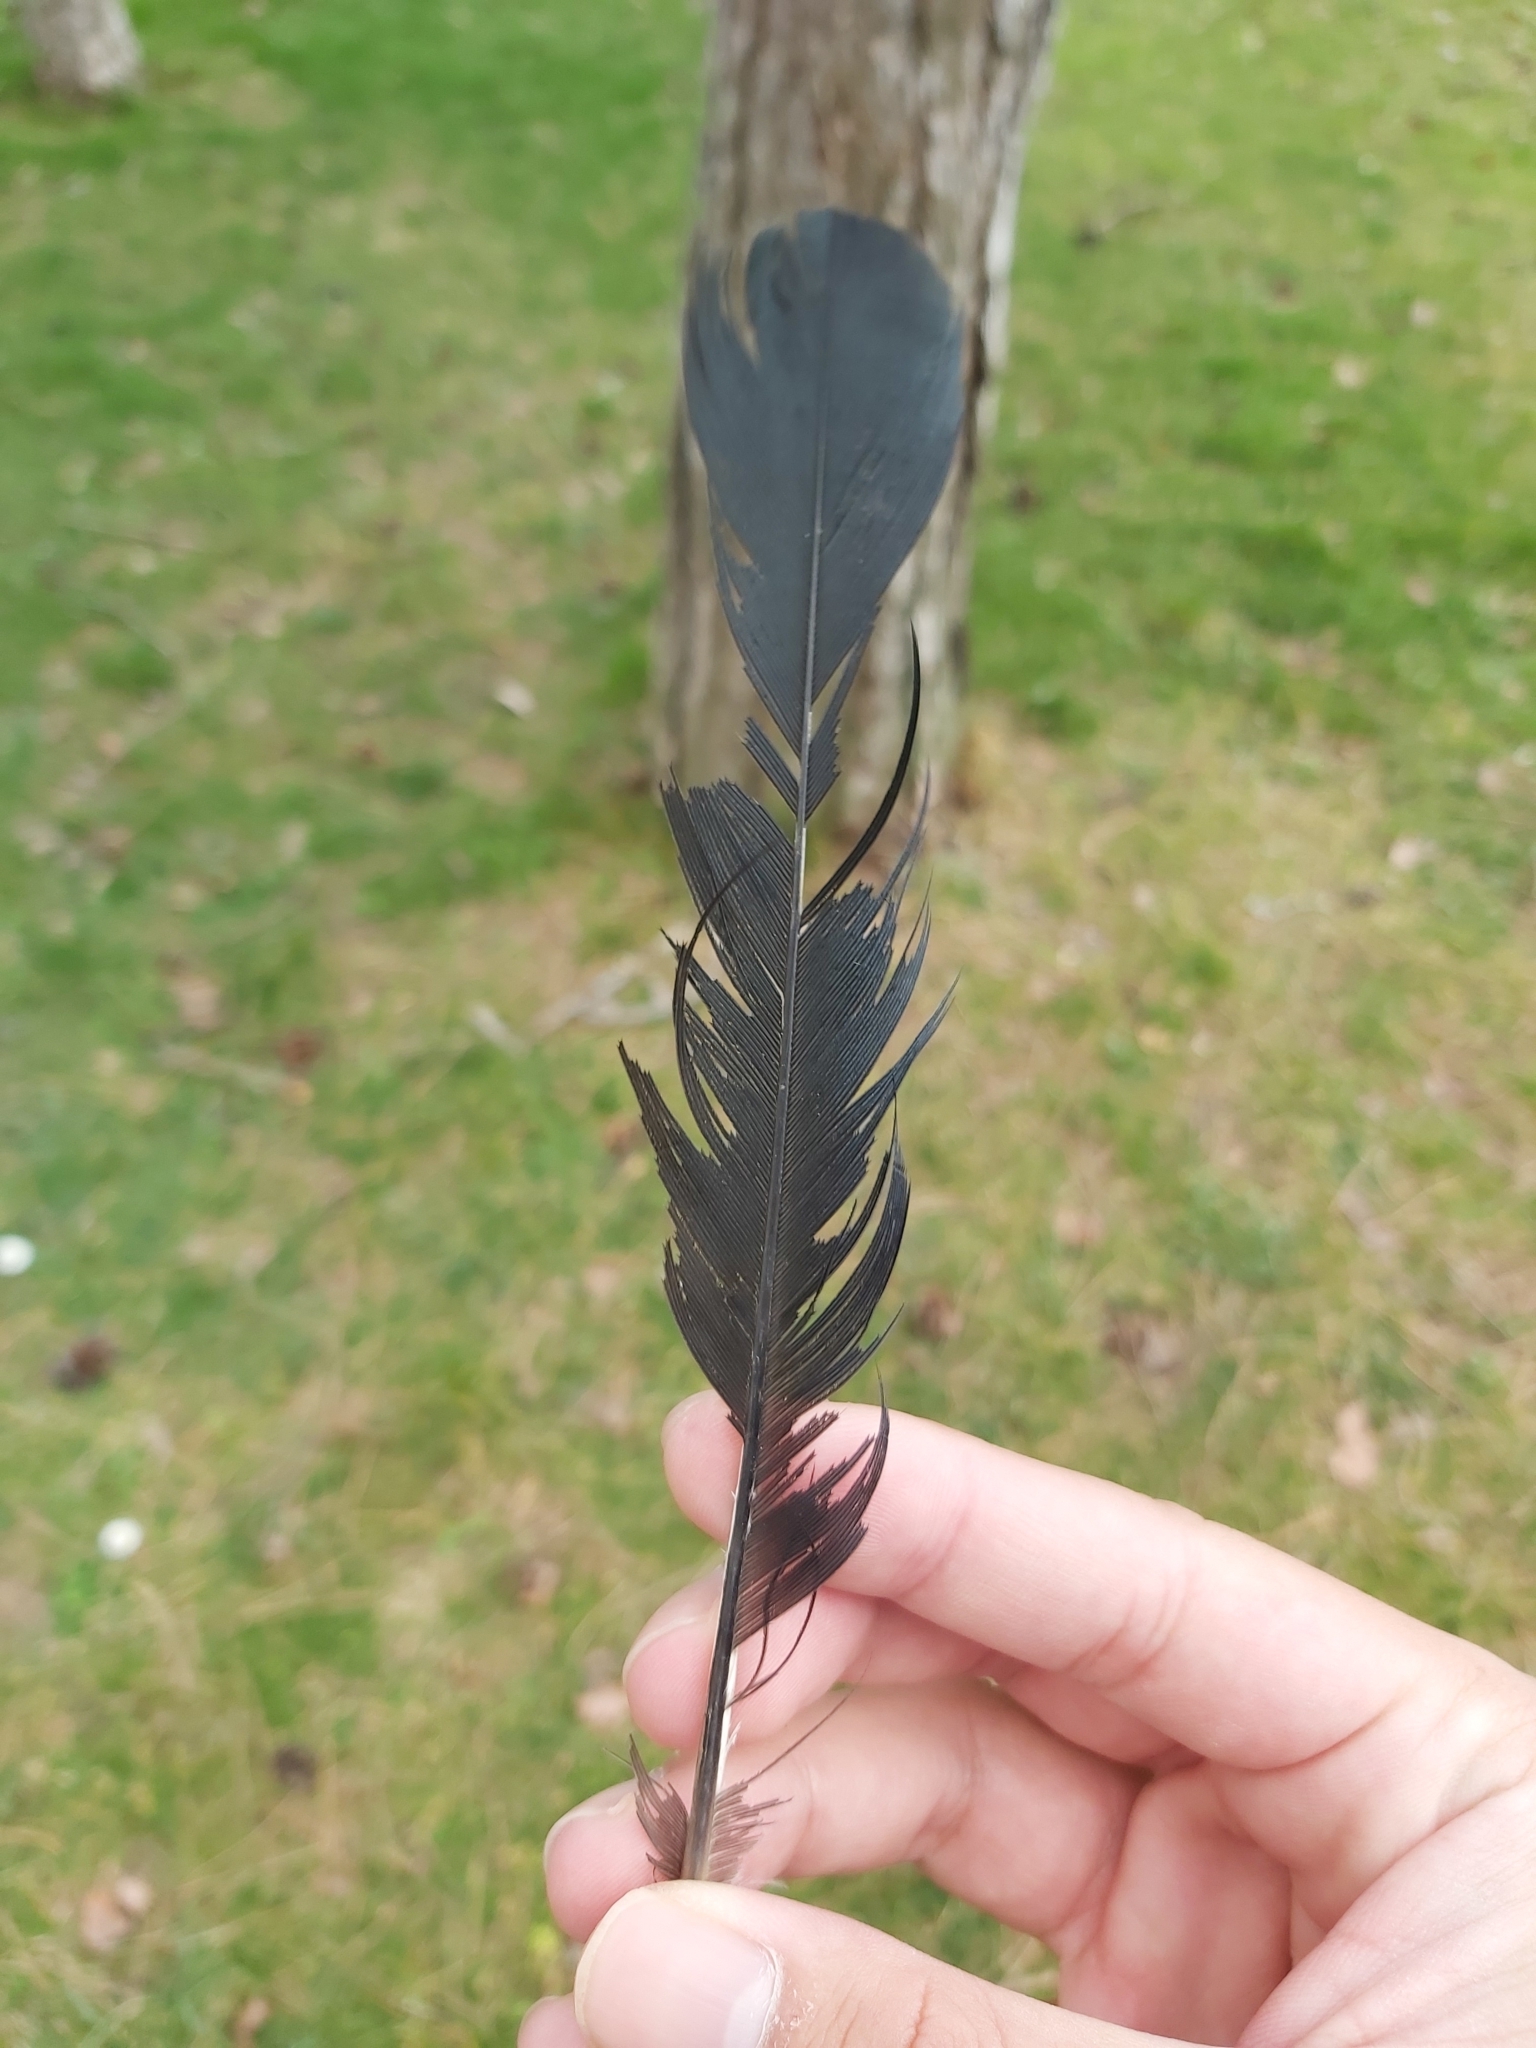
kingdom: Animalia
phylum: Chordata
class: Aves
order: Passeriformes
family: Corvidae
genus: Corvus
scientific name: Corvus cornix
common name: Hooded crow
